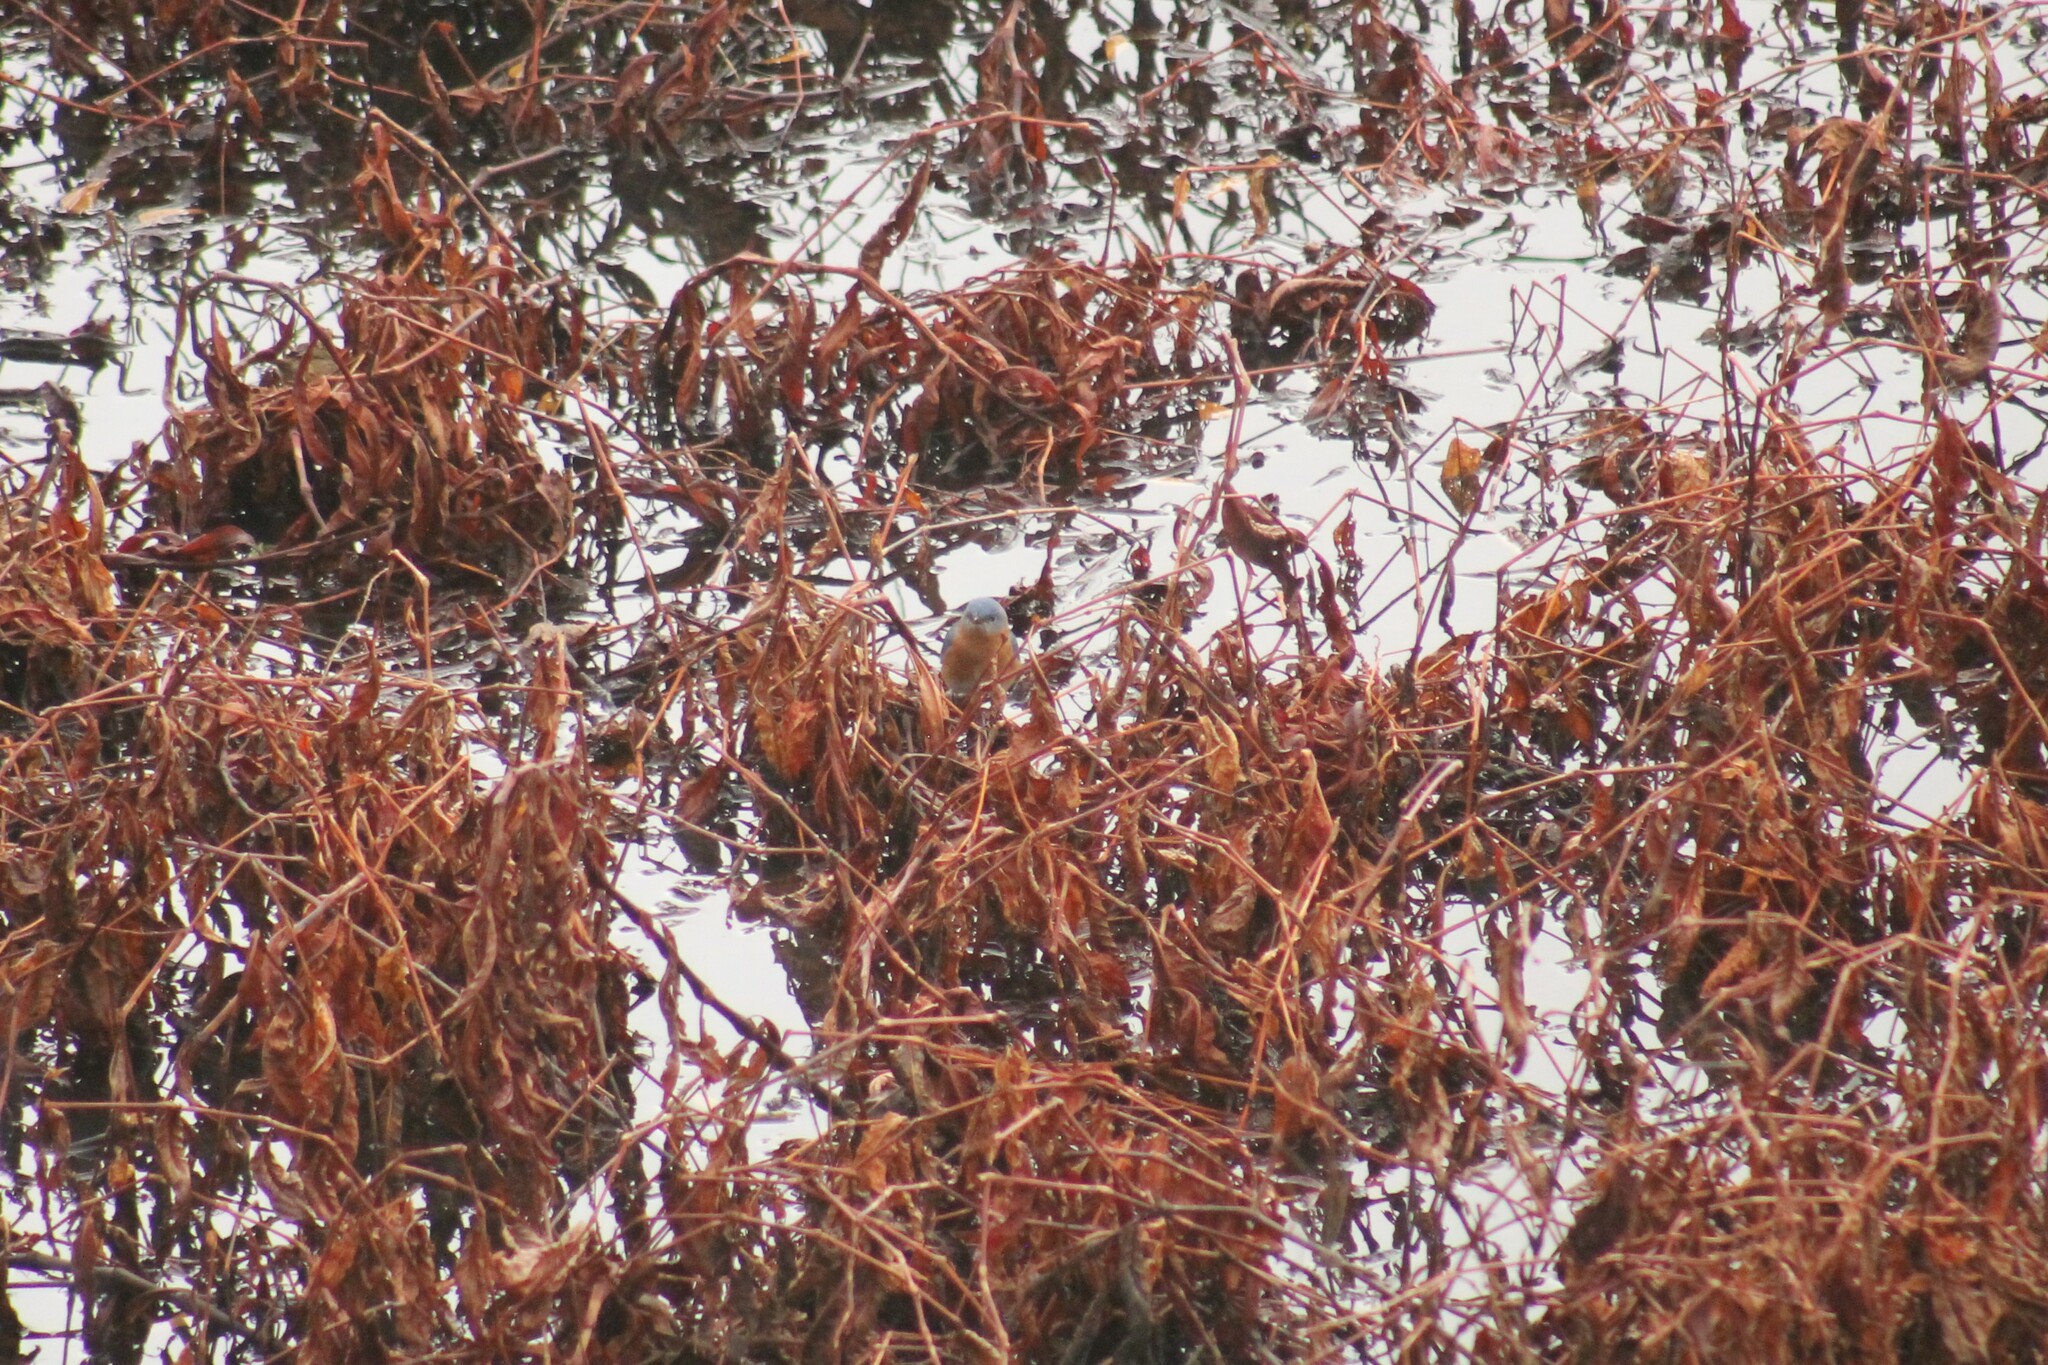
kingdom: Animalia
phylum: Chordata
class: Aves
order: Passeriformes
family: Turdidae
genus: Sialia
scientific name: Sialia sialis
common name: Eastern bluebird
